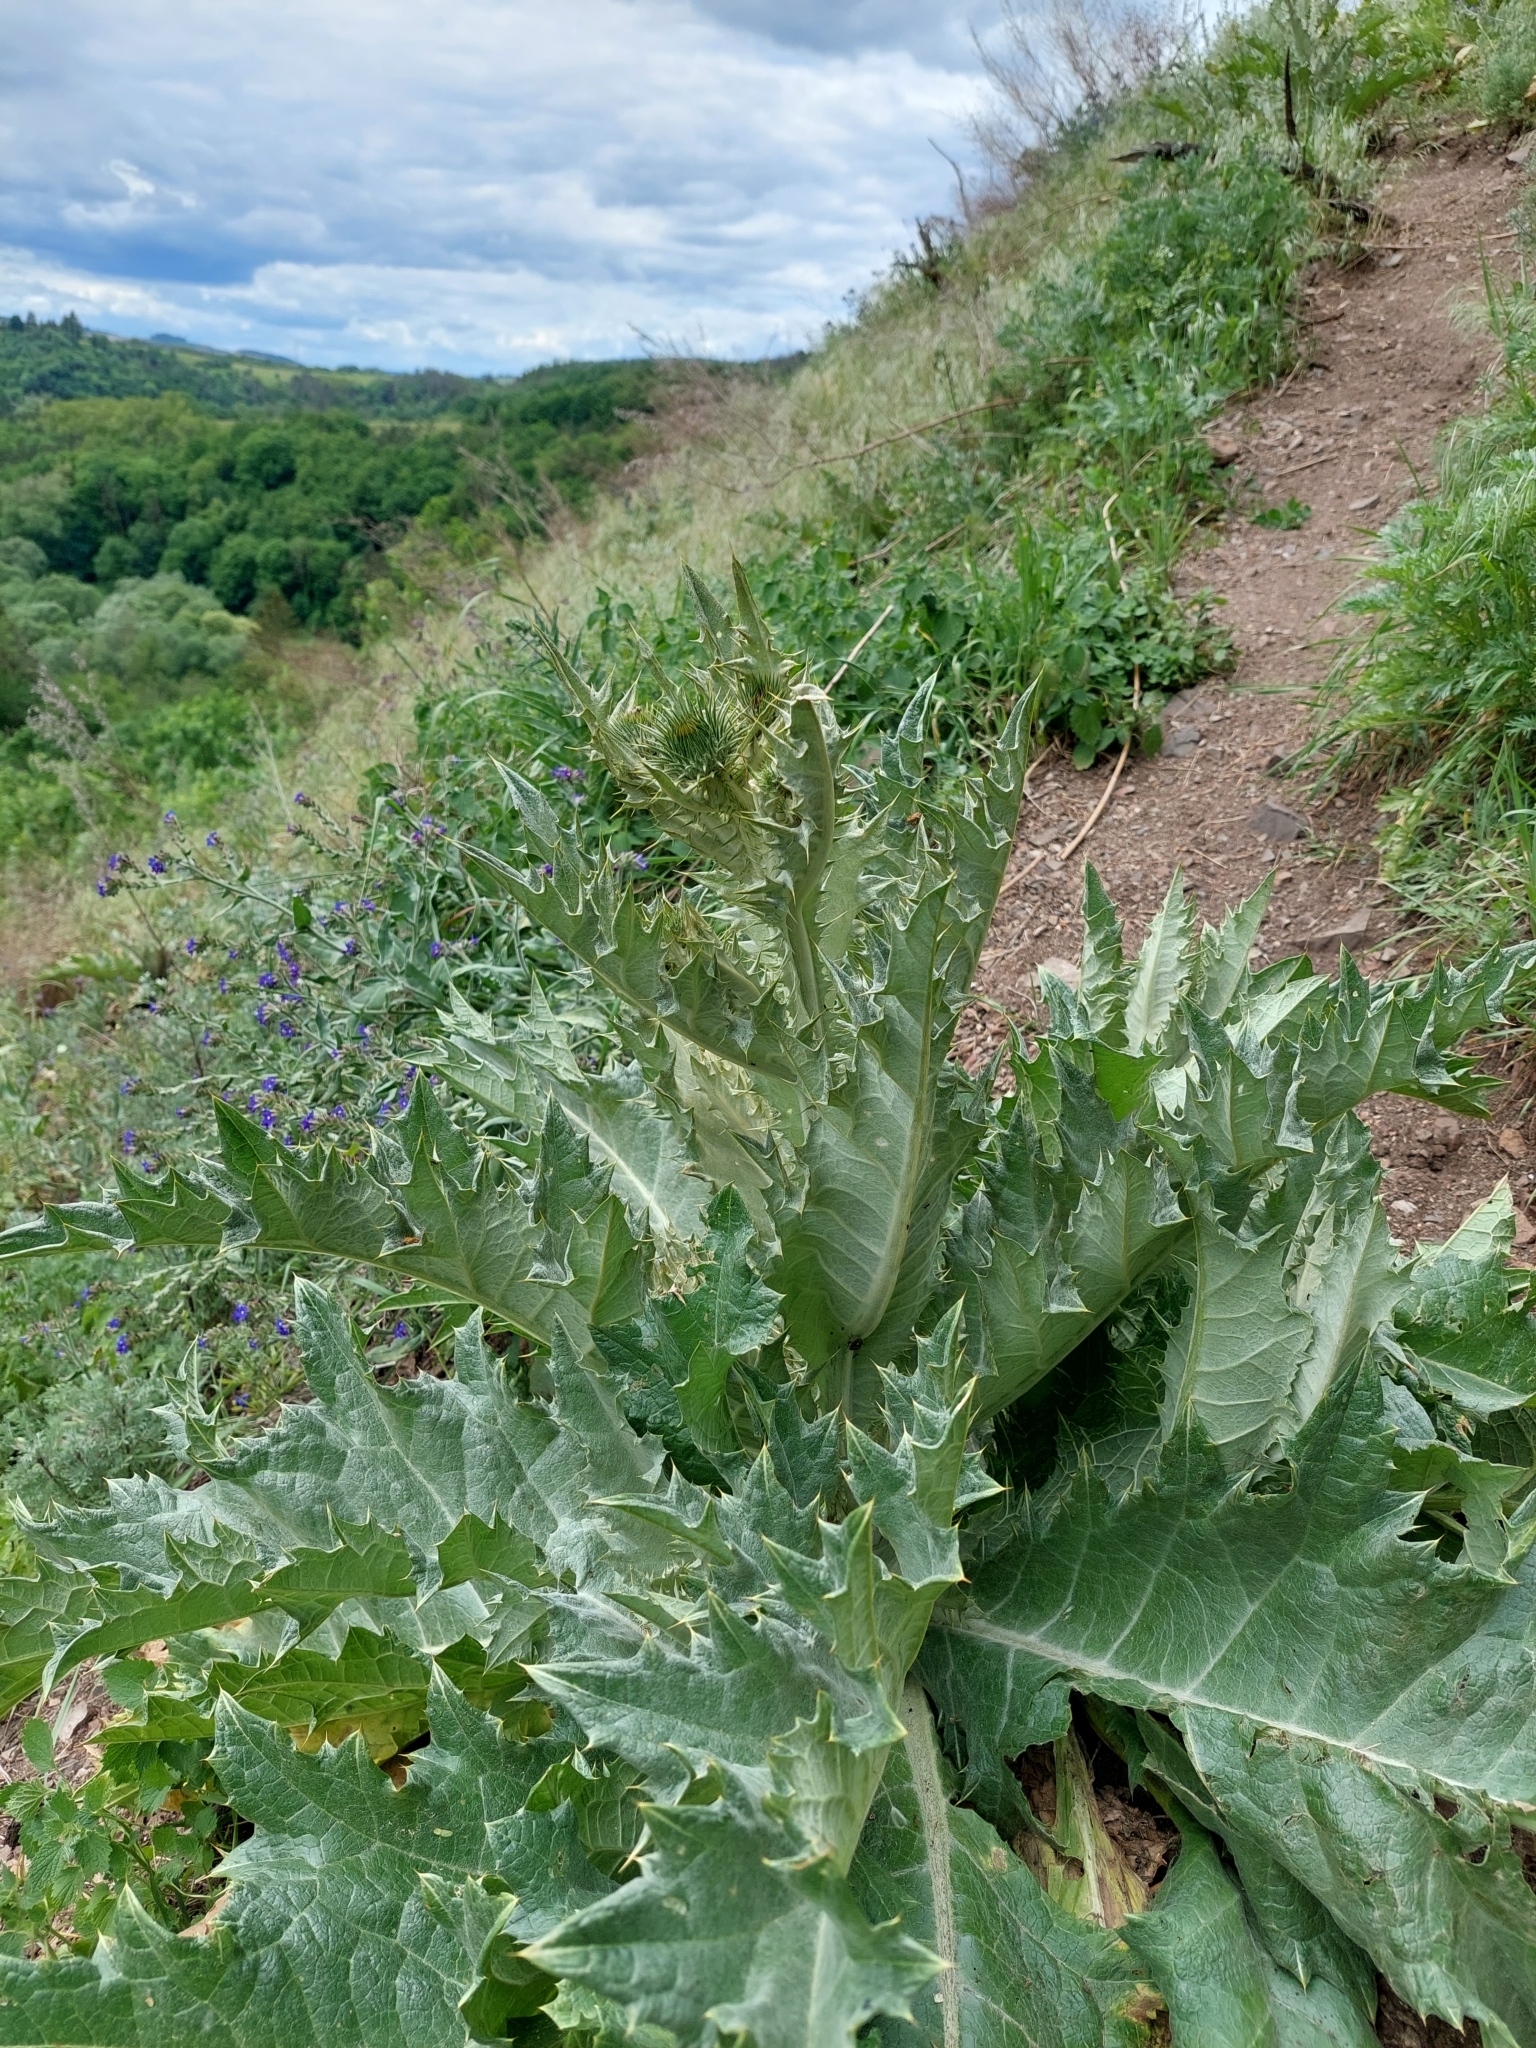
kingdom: Plantae
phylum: Tracheophyta
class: Magnoliopsida
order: Asterales
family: Asteraceae
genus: Onopordum
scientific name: Onopordum acanthium
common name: Scotch thistle
